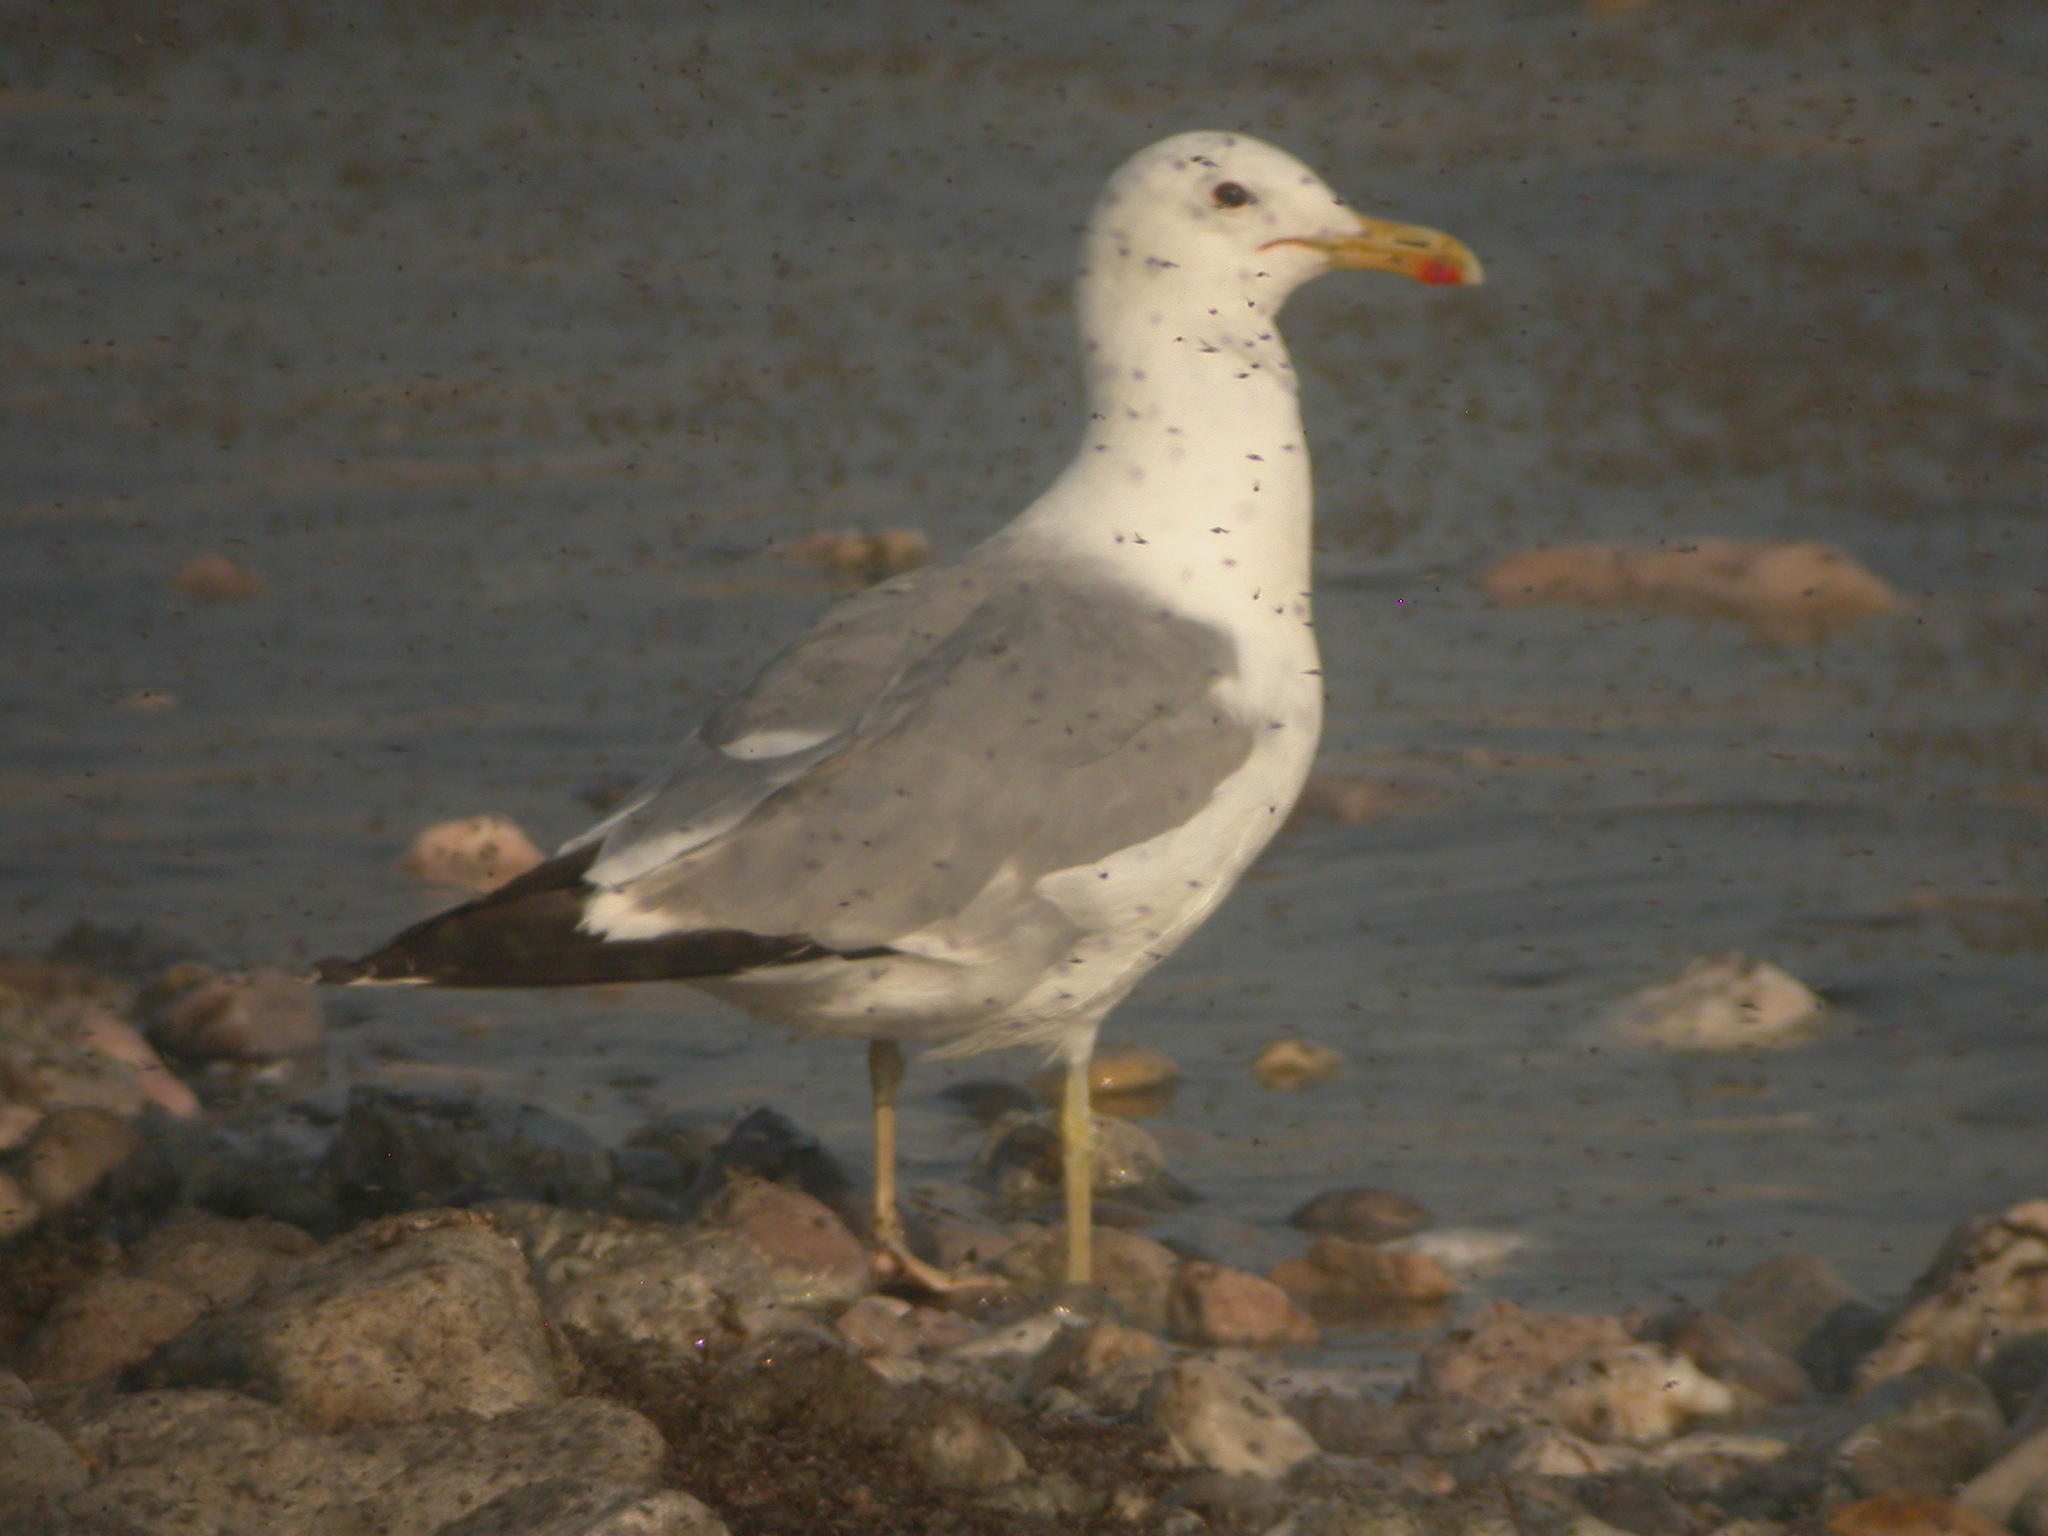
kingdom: Animalia
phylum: Chordata
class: Aves
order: Charadriiformes
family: Laridae
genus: Larus
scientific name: Larus californicus
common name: California gull
